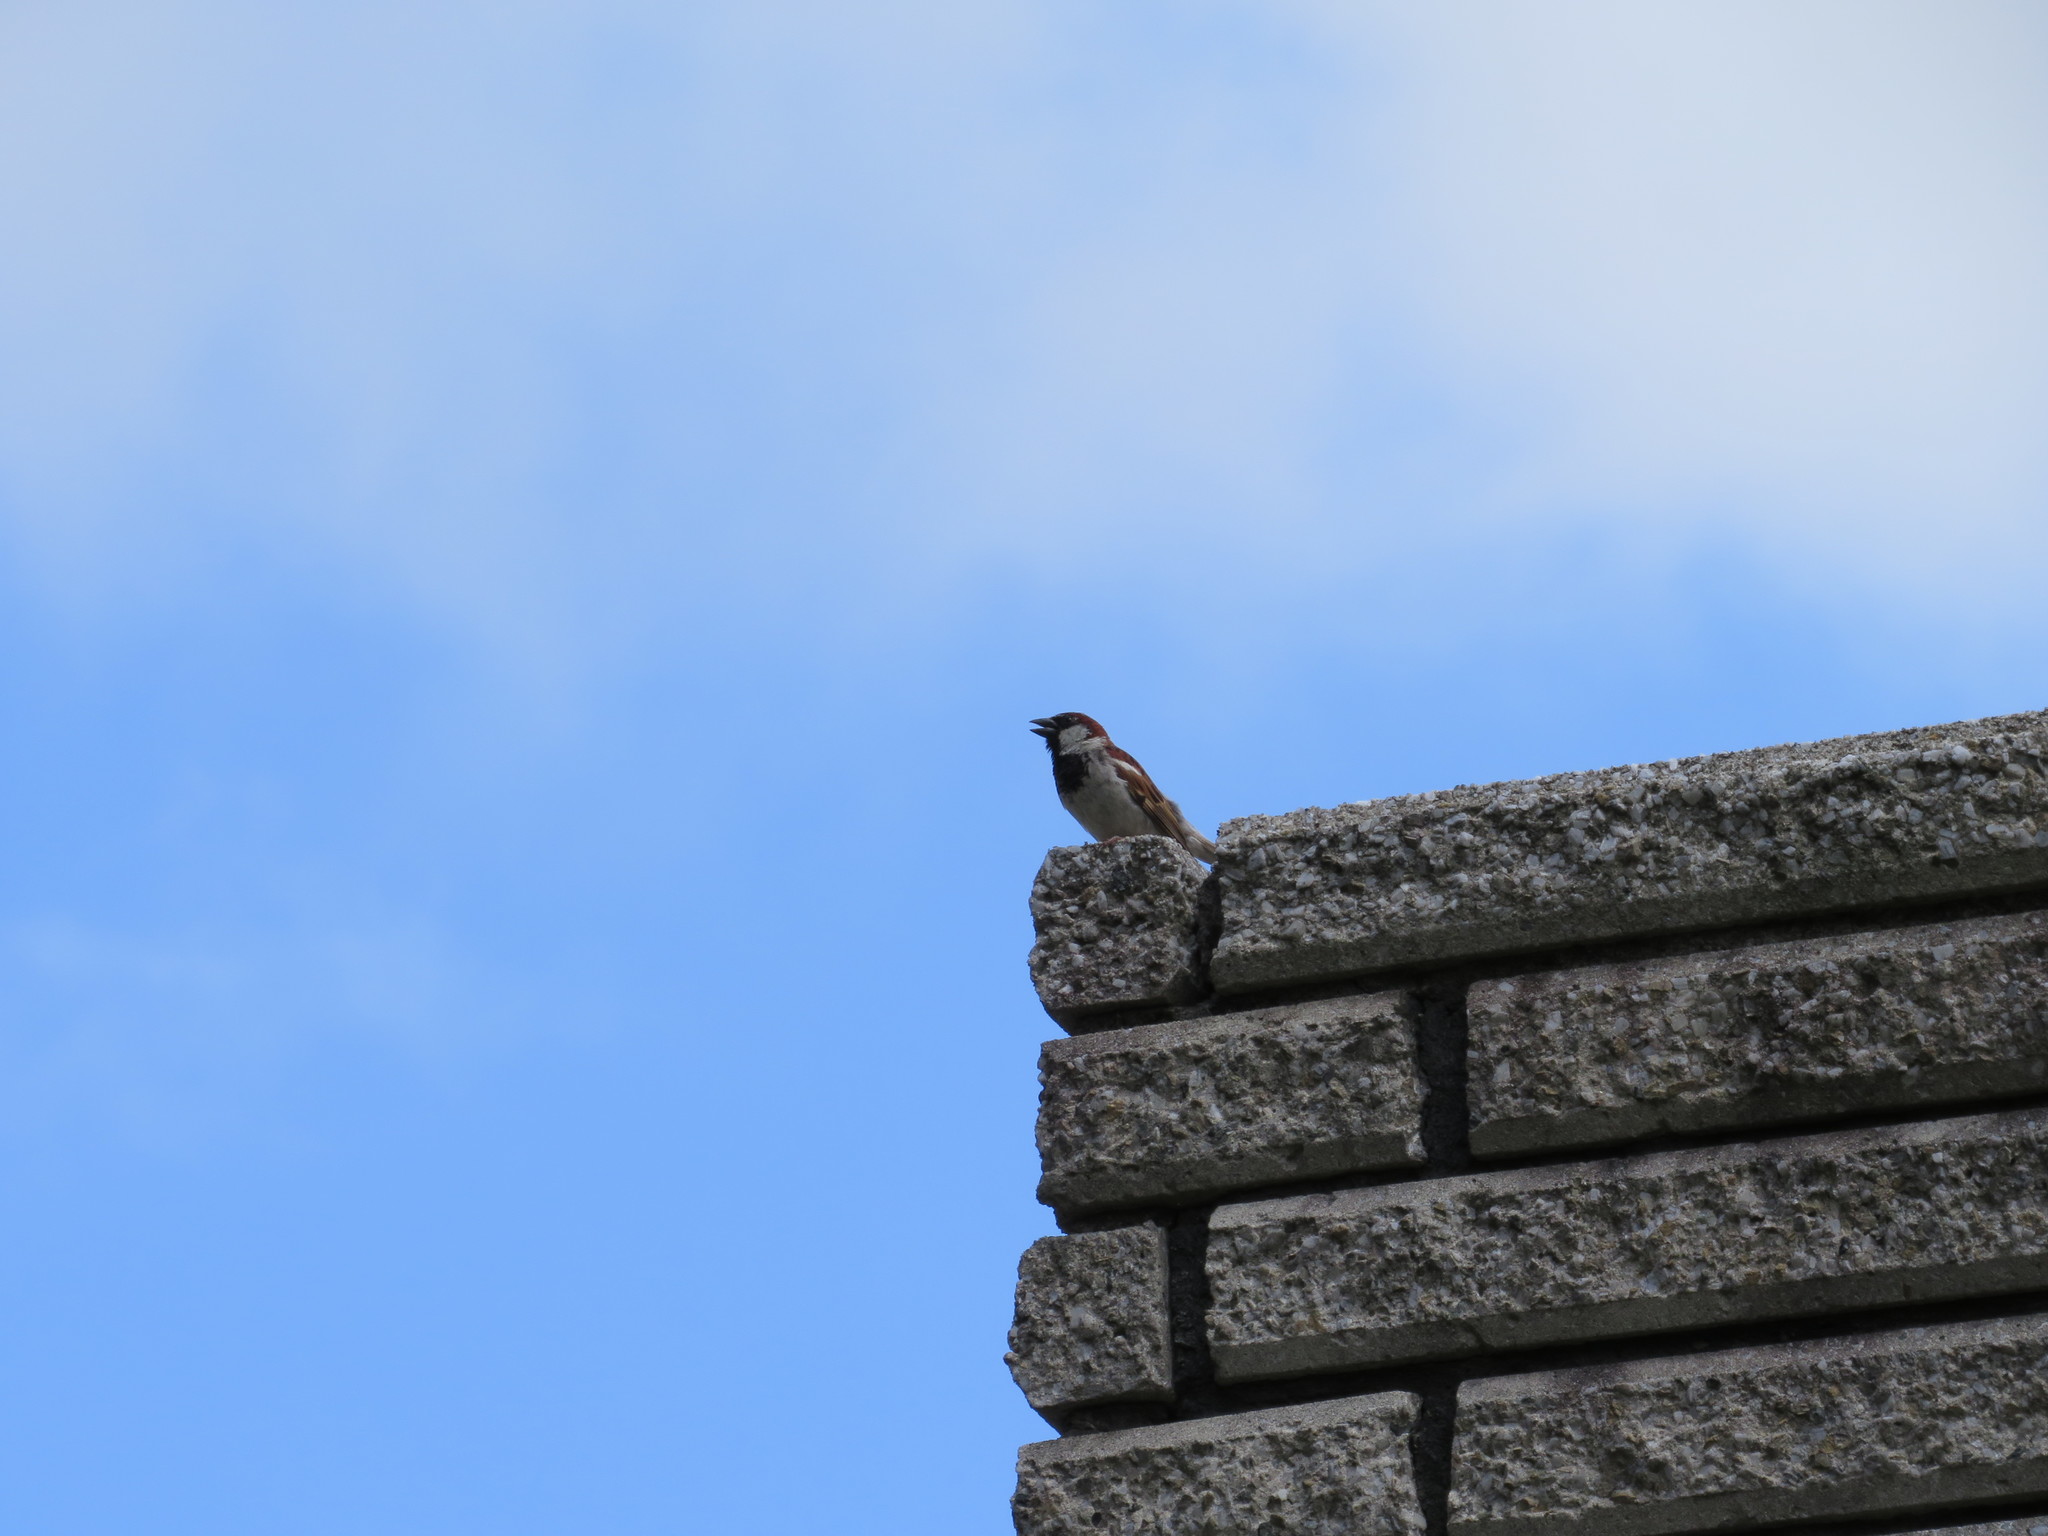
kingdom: Animalia
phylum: Chordata
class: Aves
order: Passeriformes
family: Passeridae
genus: Passer
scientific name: Passer domesticus
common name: House sparrow
